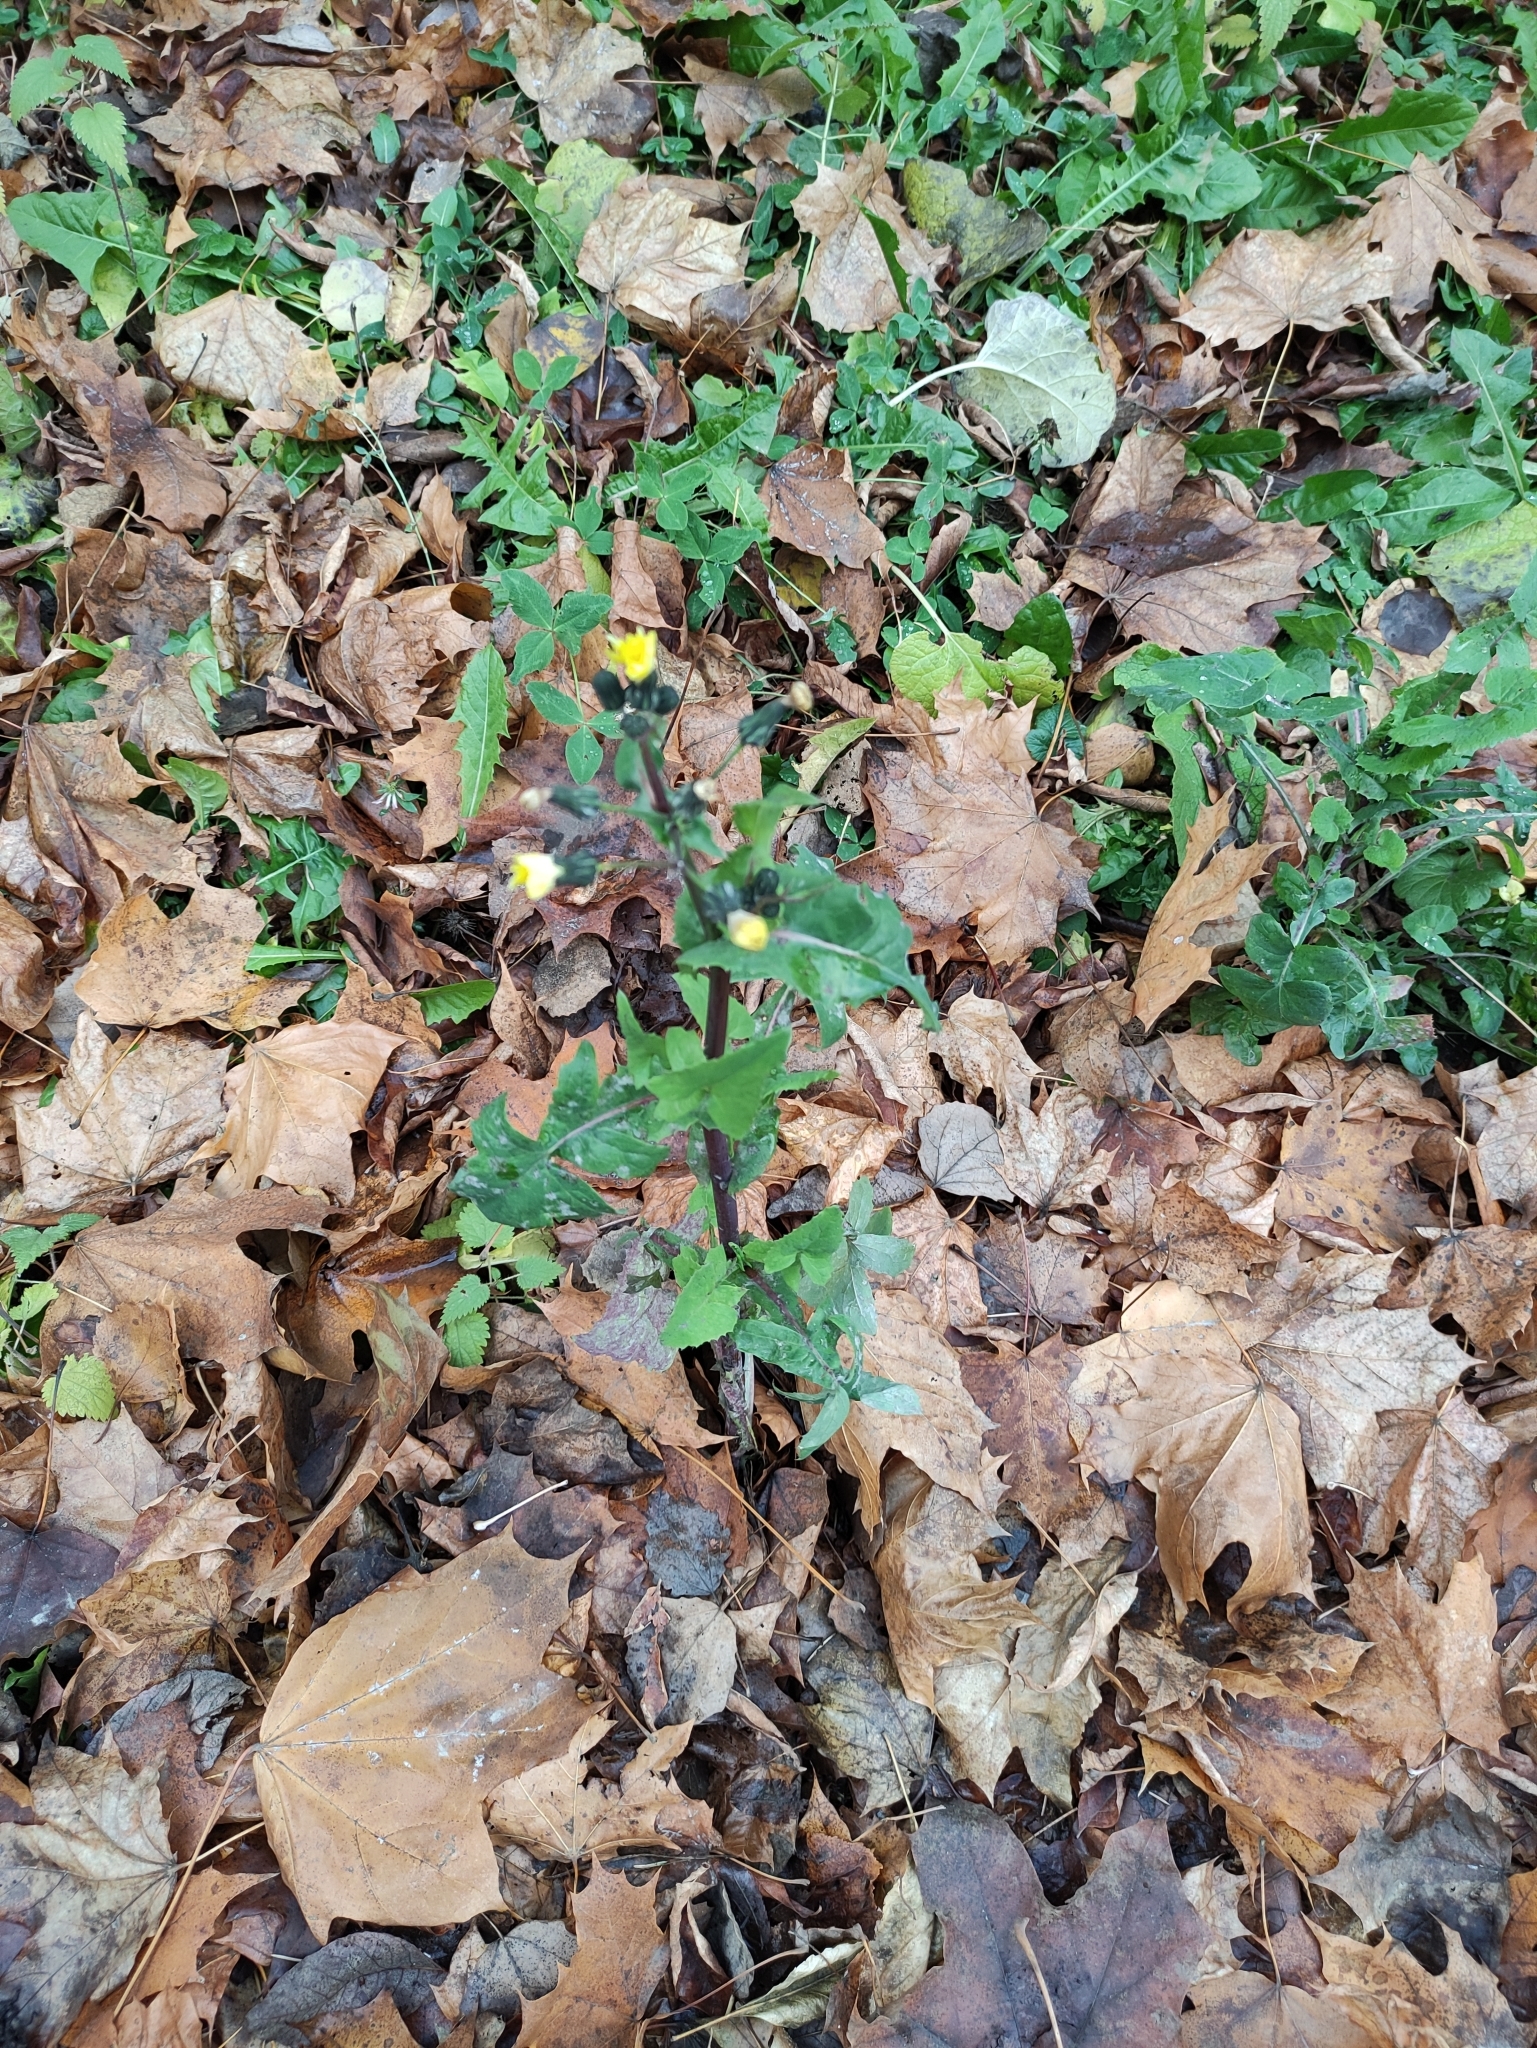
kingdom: Plantae
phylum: Tracheophyta
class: Magnoliopsida
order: Asterales
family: Asteraceae
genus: Sonchus
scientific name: Sonchus oleraceus
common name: Common sowthistle
